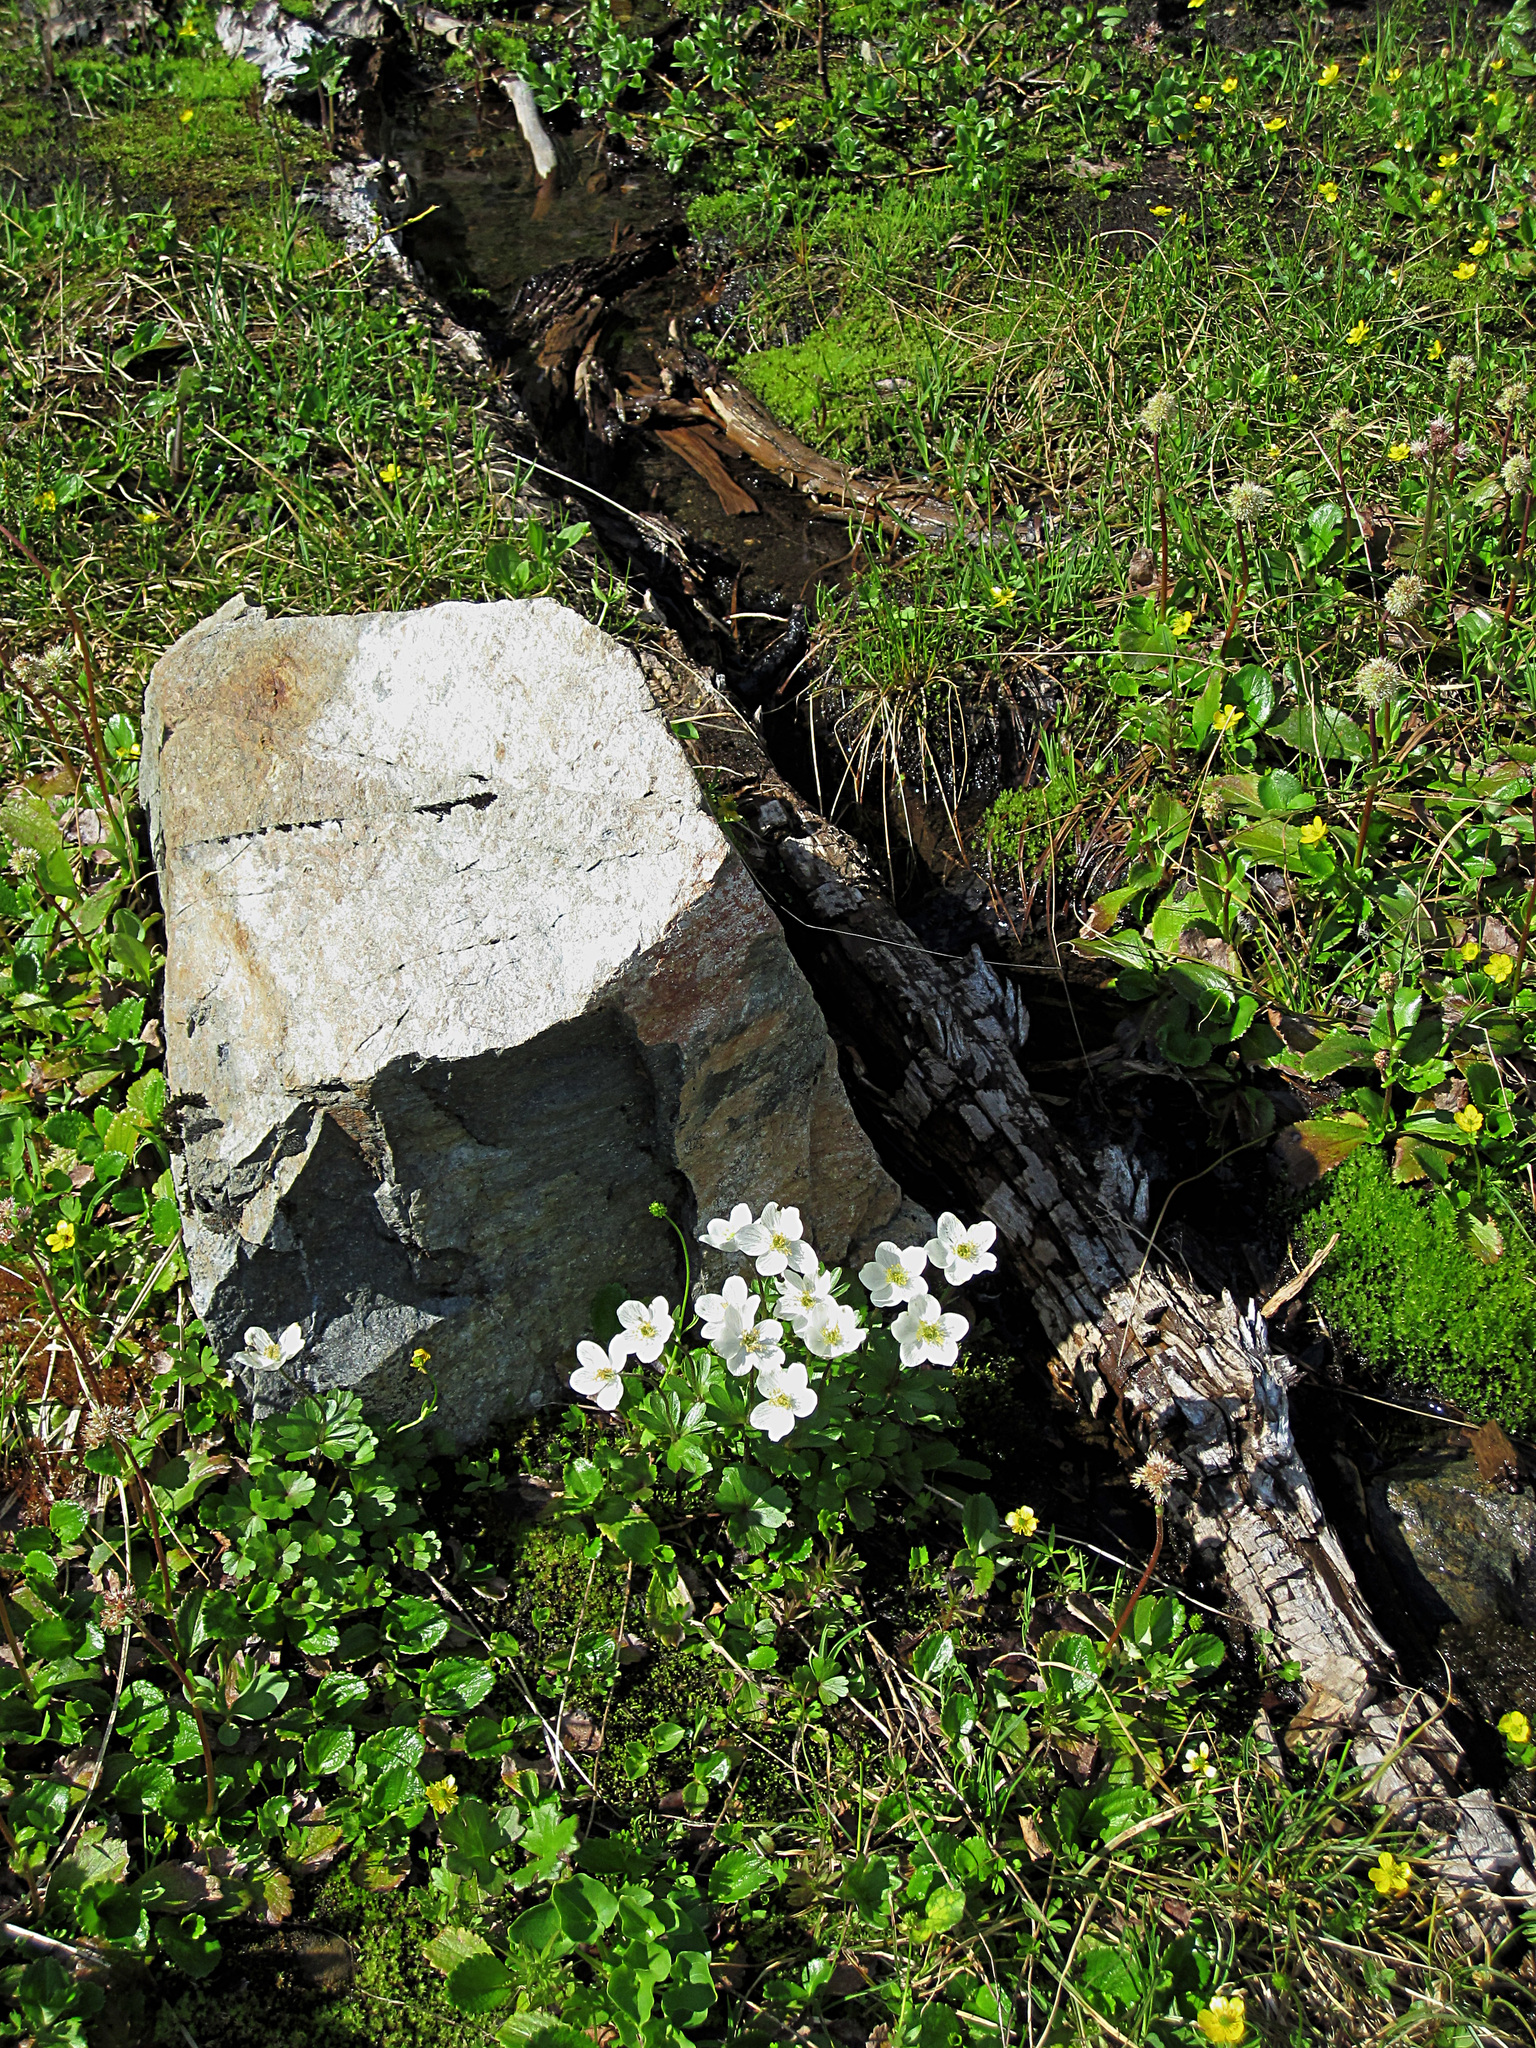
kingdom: Plantae
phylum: Tracheophyta
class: Magnoliopsida
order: Ranunculales
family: Ranunculaceae
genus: Anemone
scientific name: Anemone parviflora
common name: Northern anemone
